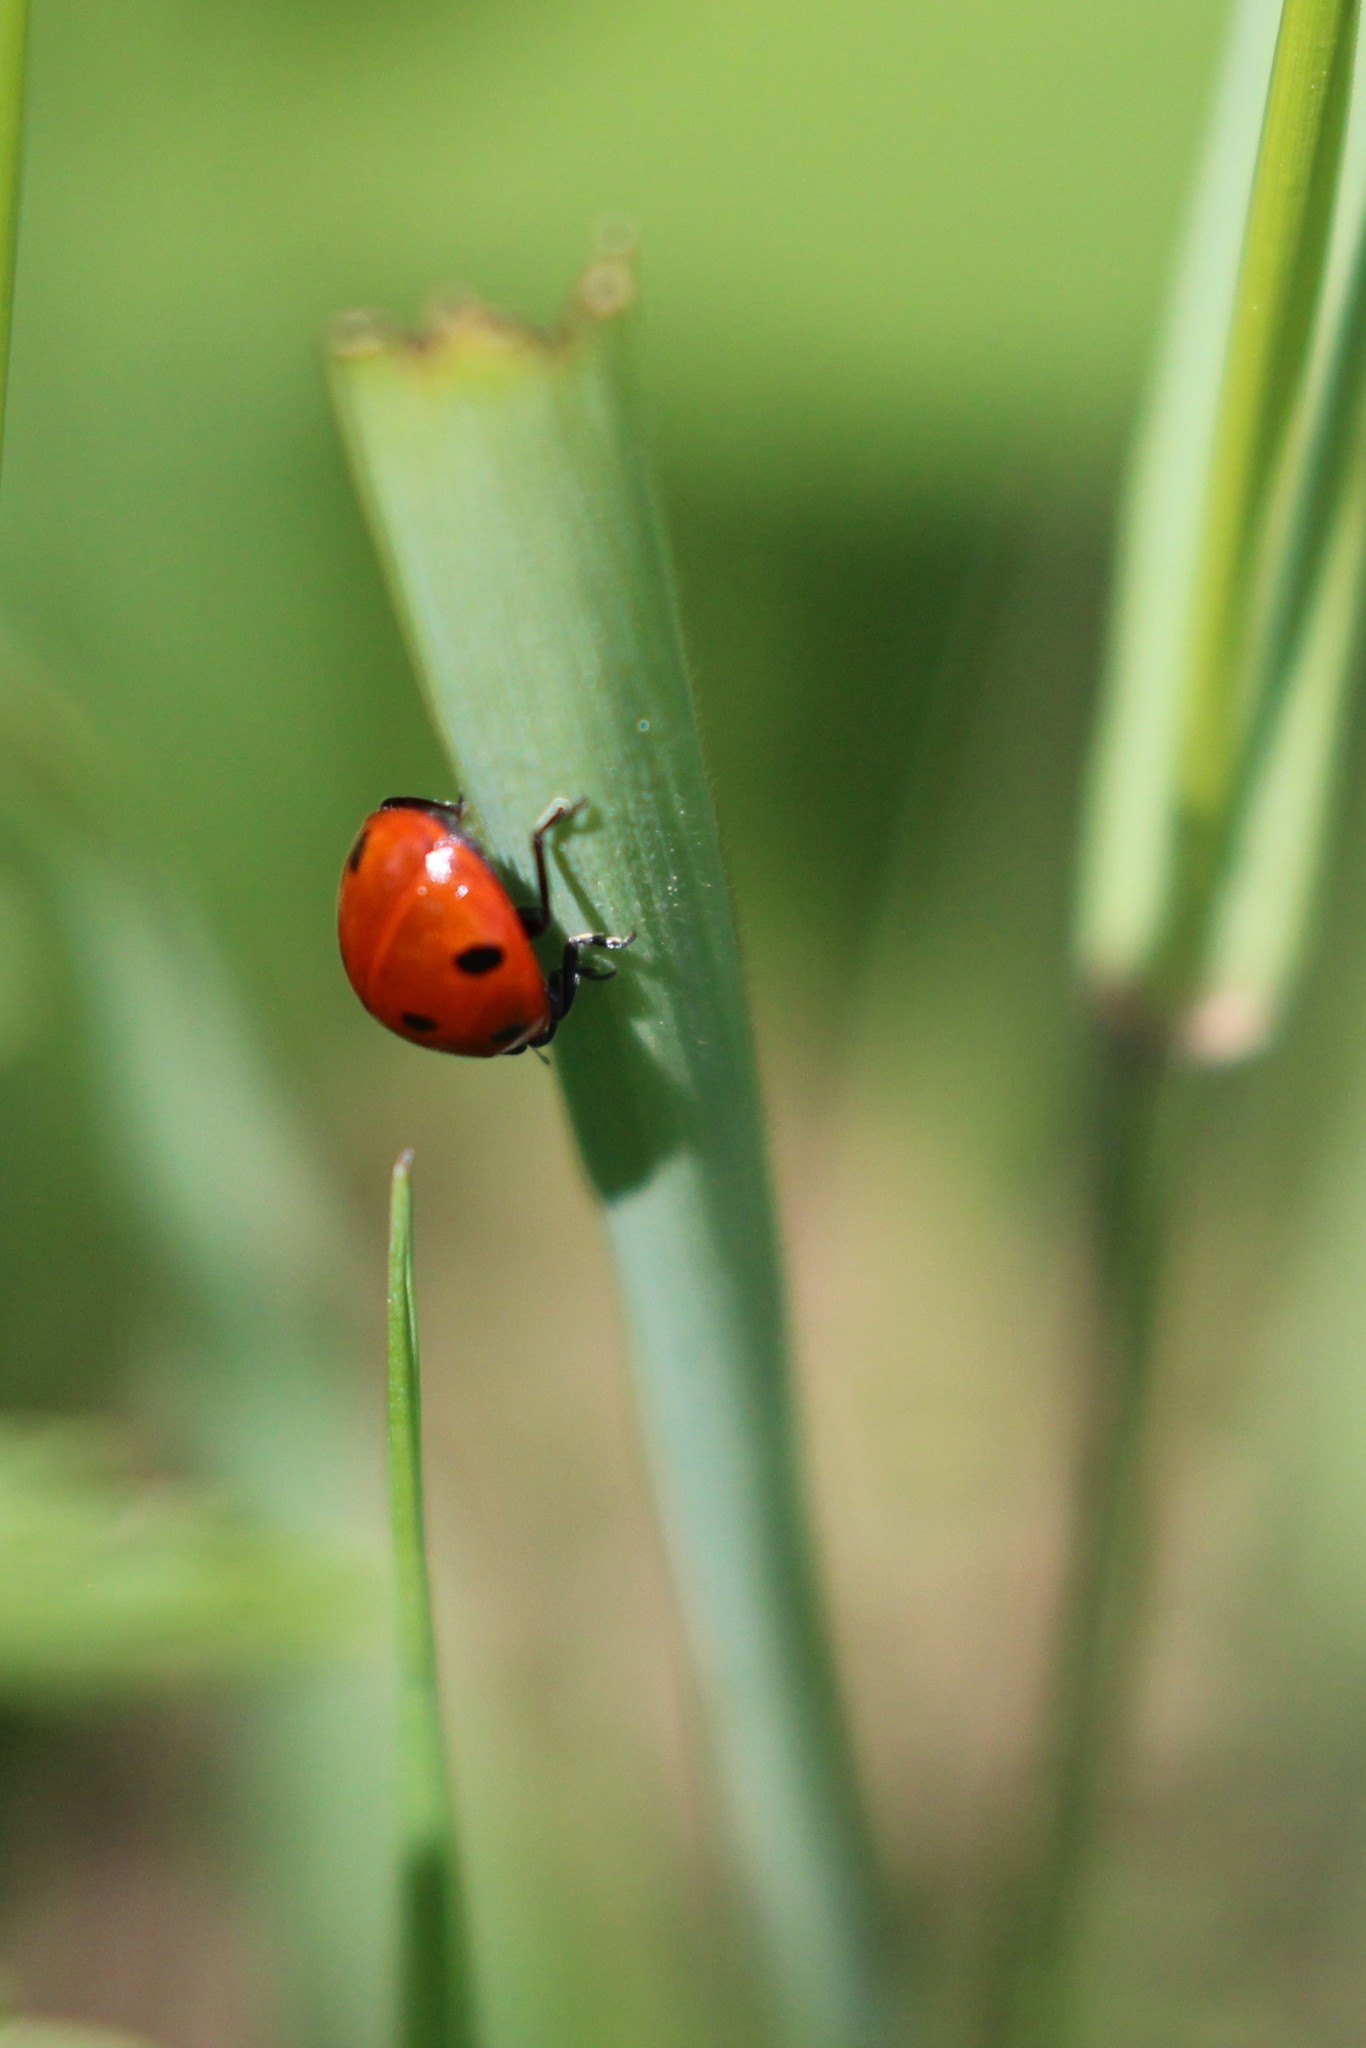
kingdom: Animalia
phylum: Arthropoda
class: Insecta
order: Coleoptera
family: Coccinellidae
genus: Coccinella
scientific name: Coccinella septempunctata
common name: Sevenspotted lady beetle
